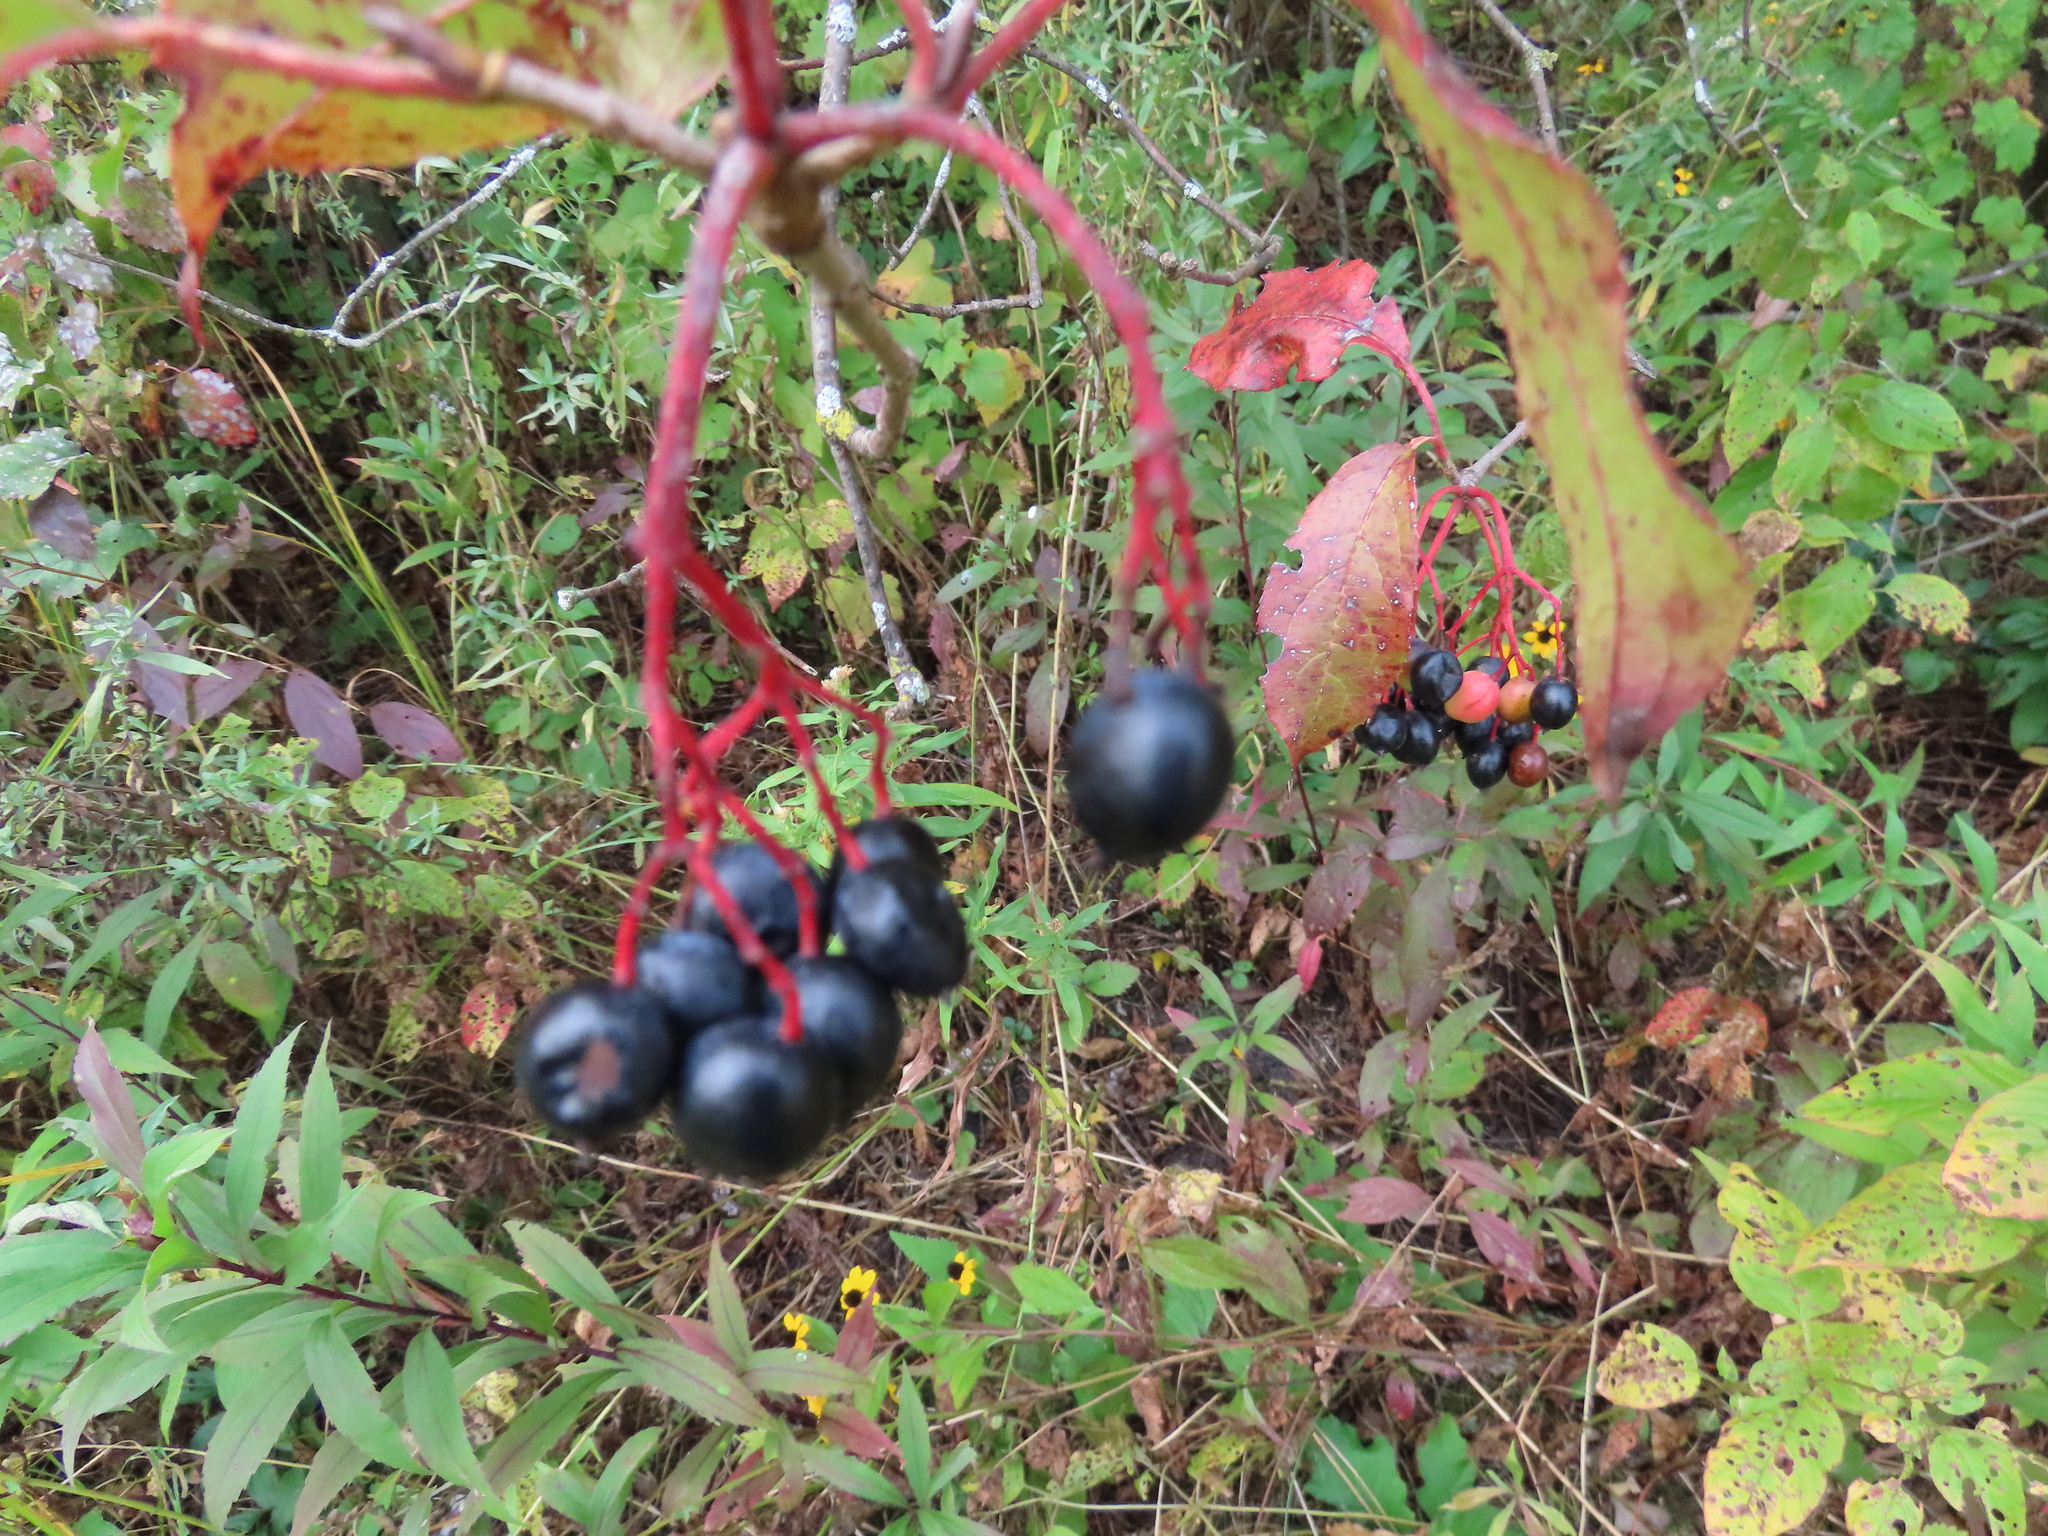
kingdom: Plantae
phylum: Tracheophyta
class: Magnoliopsida
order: Dipsacales
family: Viburnaceae
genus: Viburnum
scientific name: Viburnum lentago
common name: Black haw
